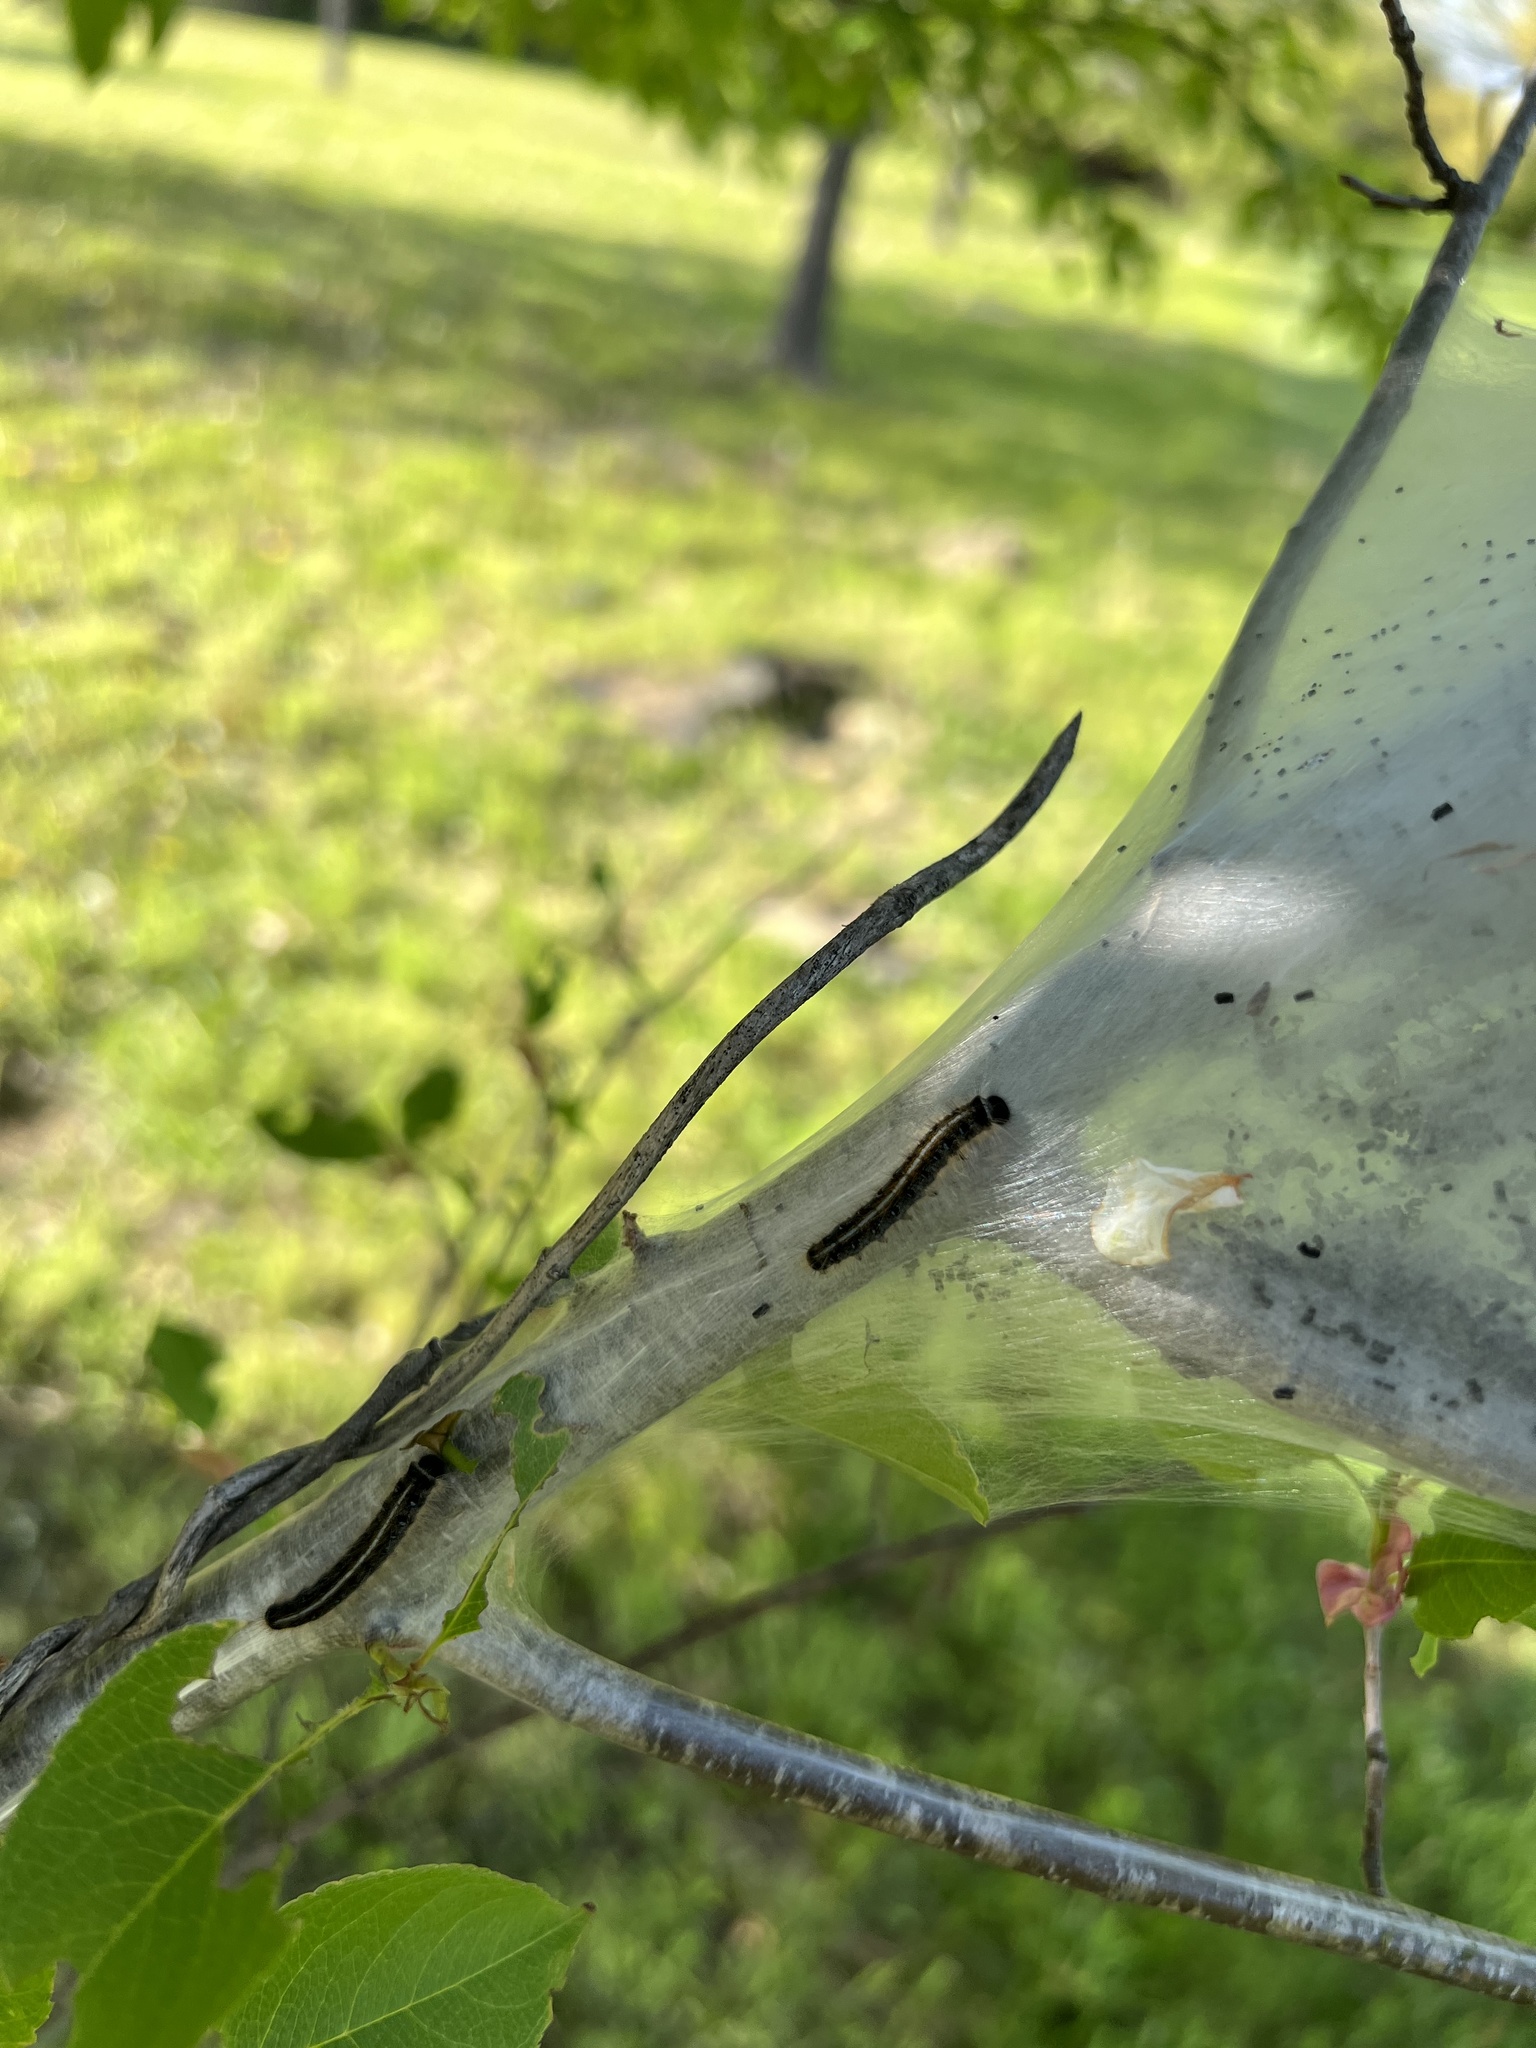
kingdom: Animalia
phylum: Arthropoda
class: Insecta
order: Lepidoptera
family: Lasiocampidae
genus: Malacosoma
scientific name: Malacosoma americana
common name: Eastern tent caterpillar moth
